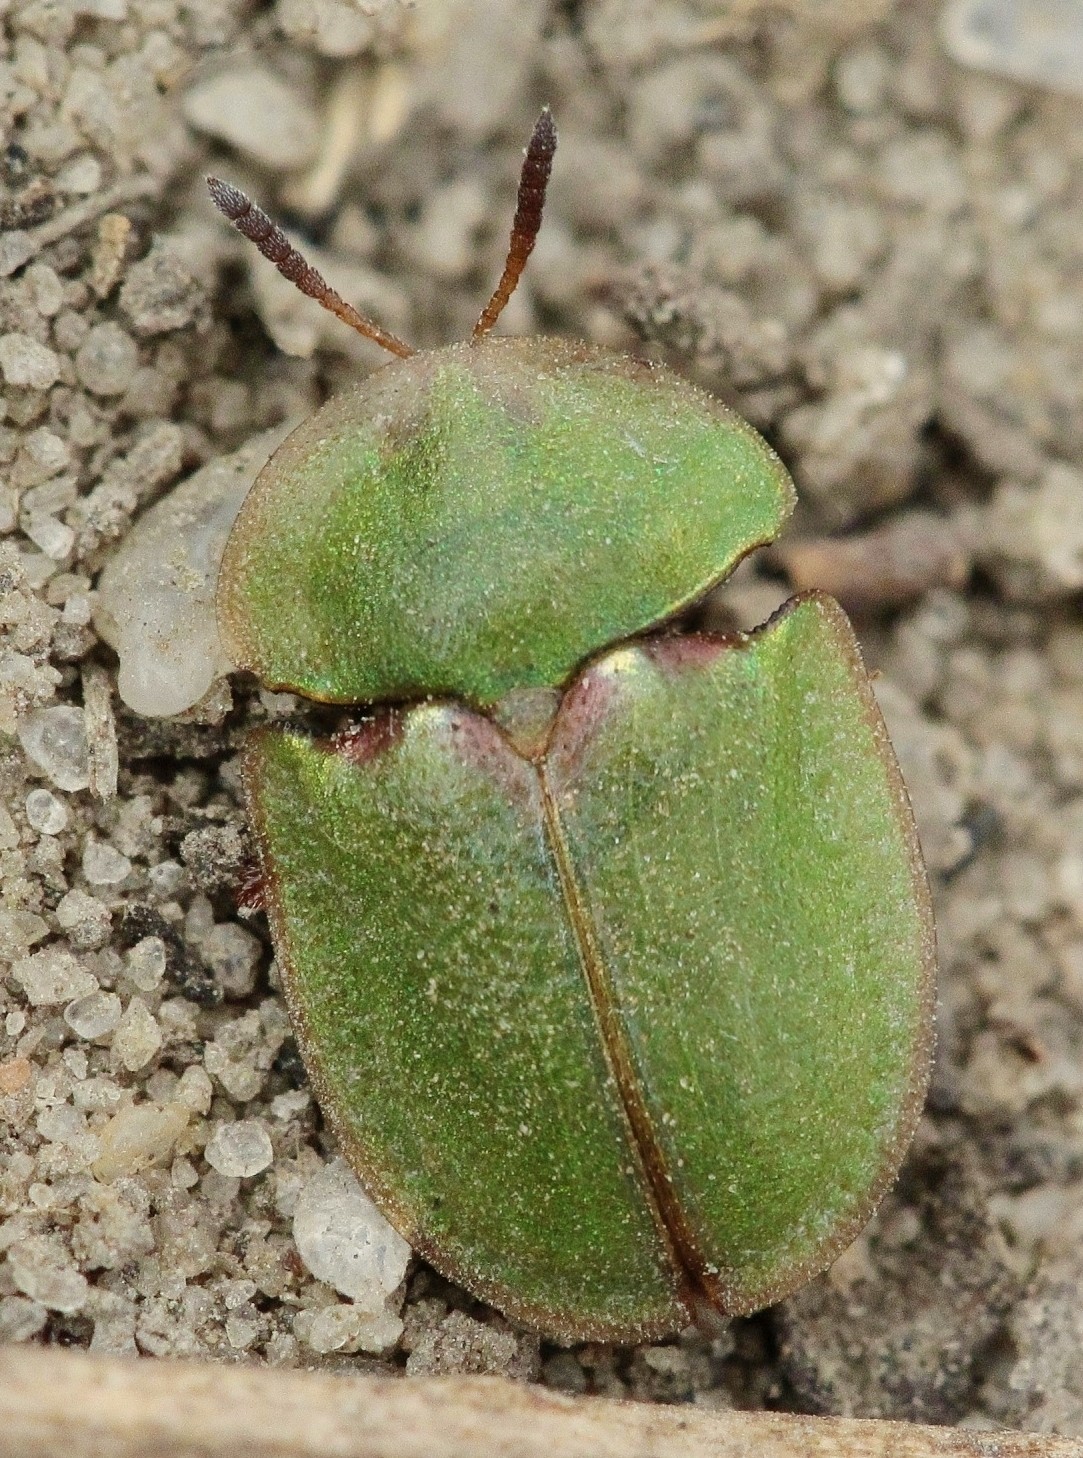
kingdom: Animalia
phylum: Arthropoda
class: Insecta
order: Coleoptera
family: Chrysomelidae
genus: Cassida
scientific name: Cassida seladonia
